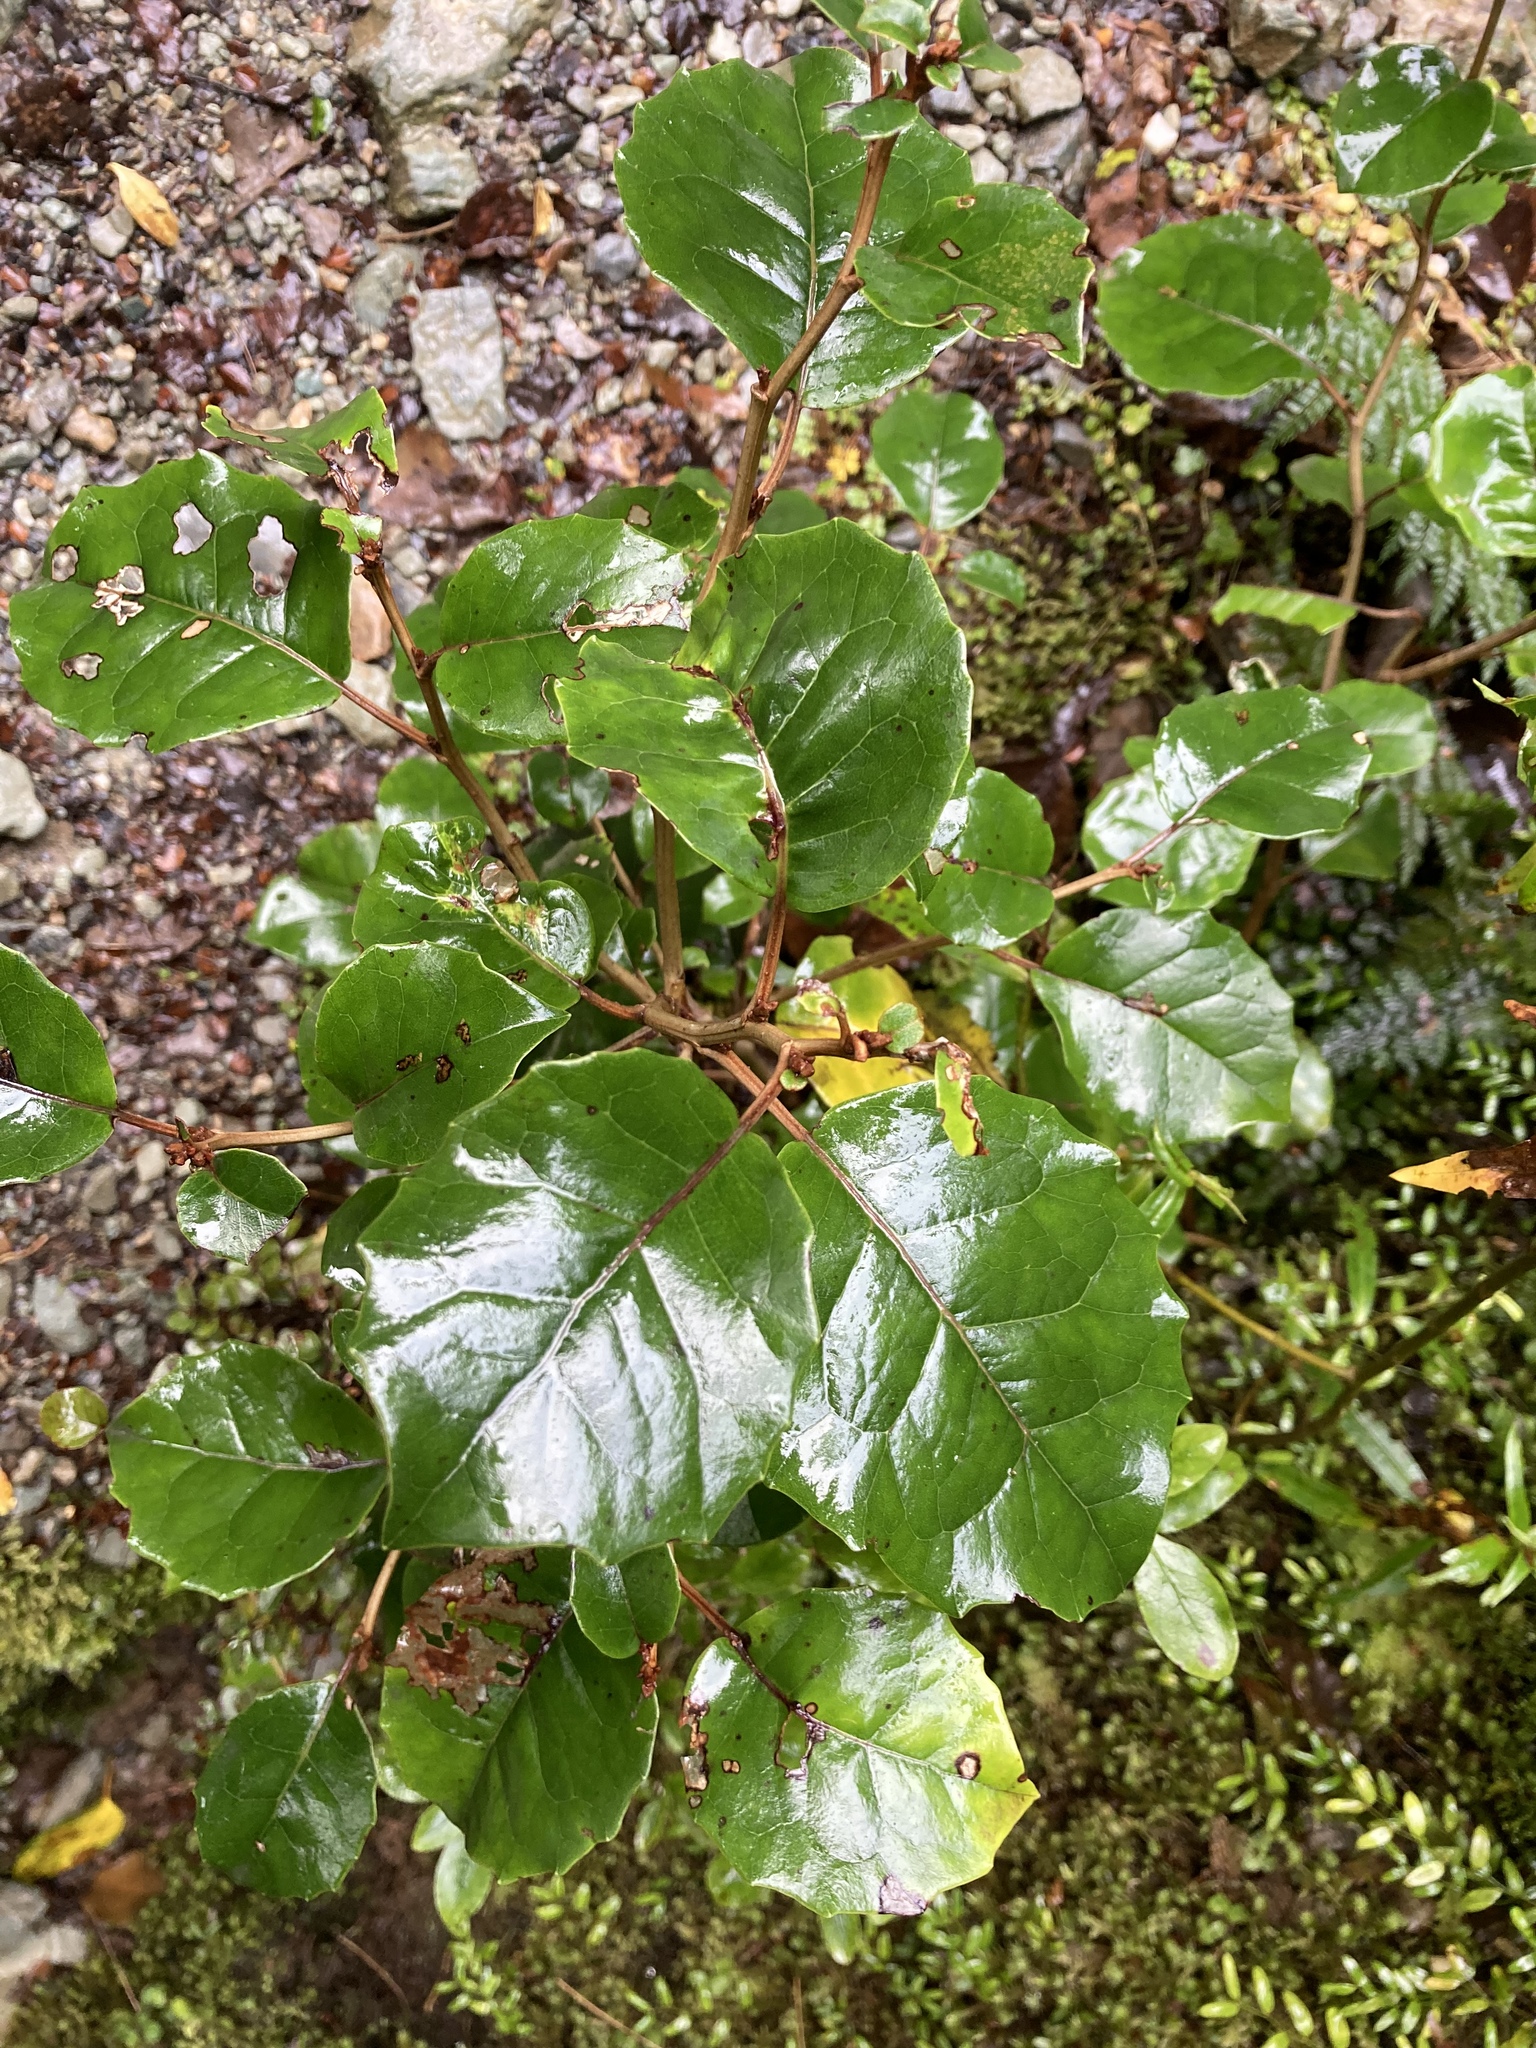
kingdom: Plantae
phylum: Tracheophyta
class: Magnoliopsida
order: Asterales
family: Asteraceae
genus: Olearia
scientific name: Olearia arborescens
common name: Glossy tree daisy
